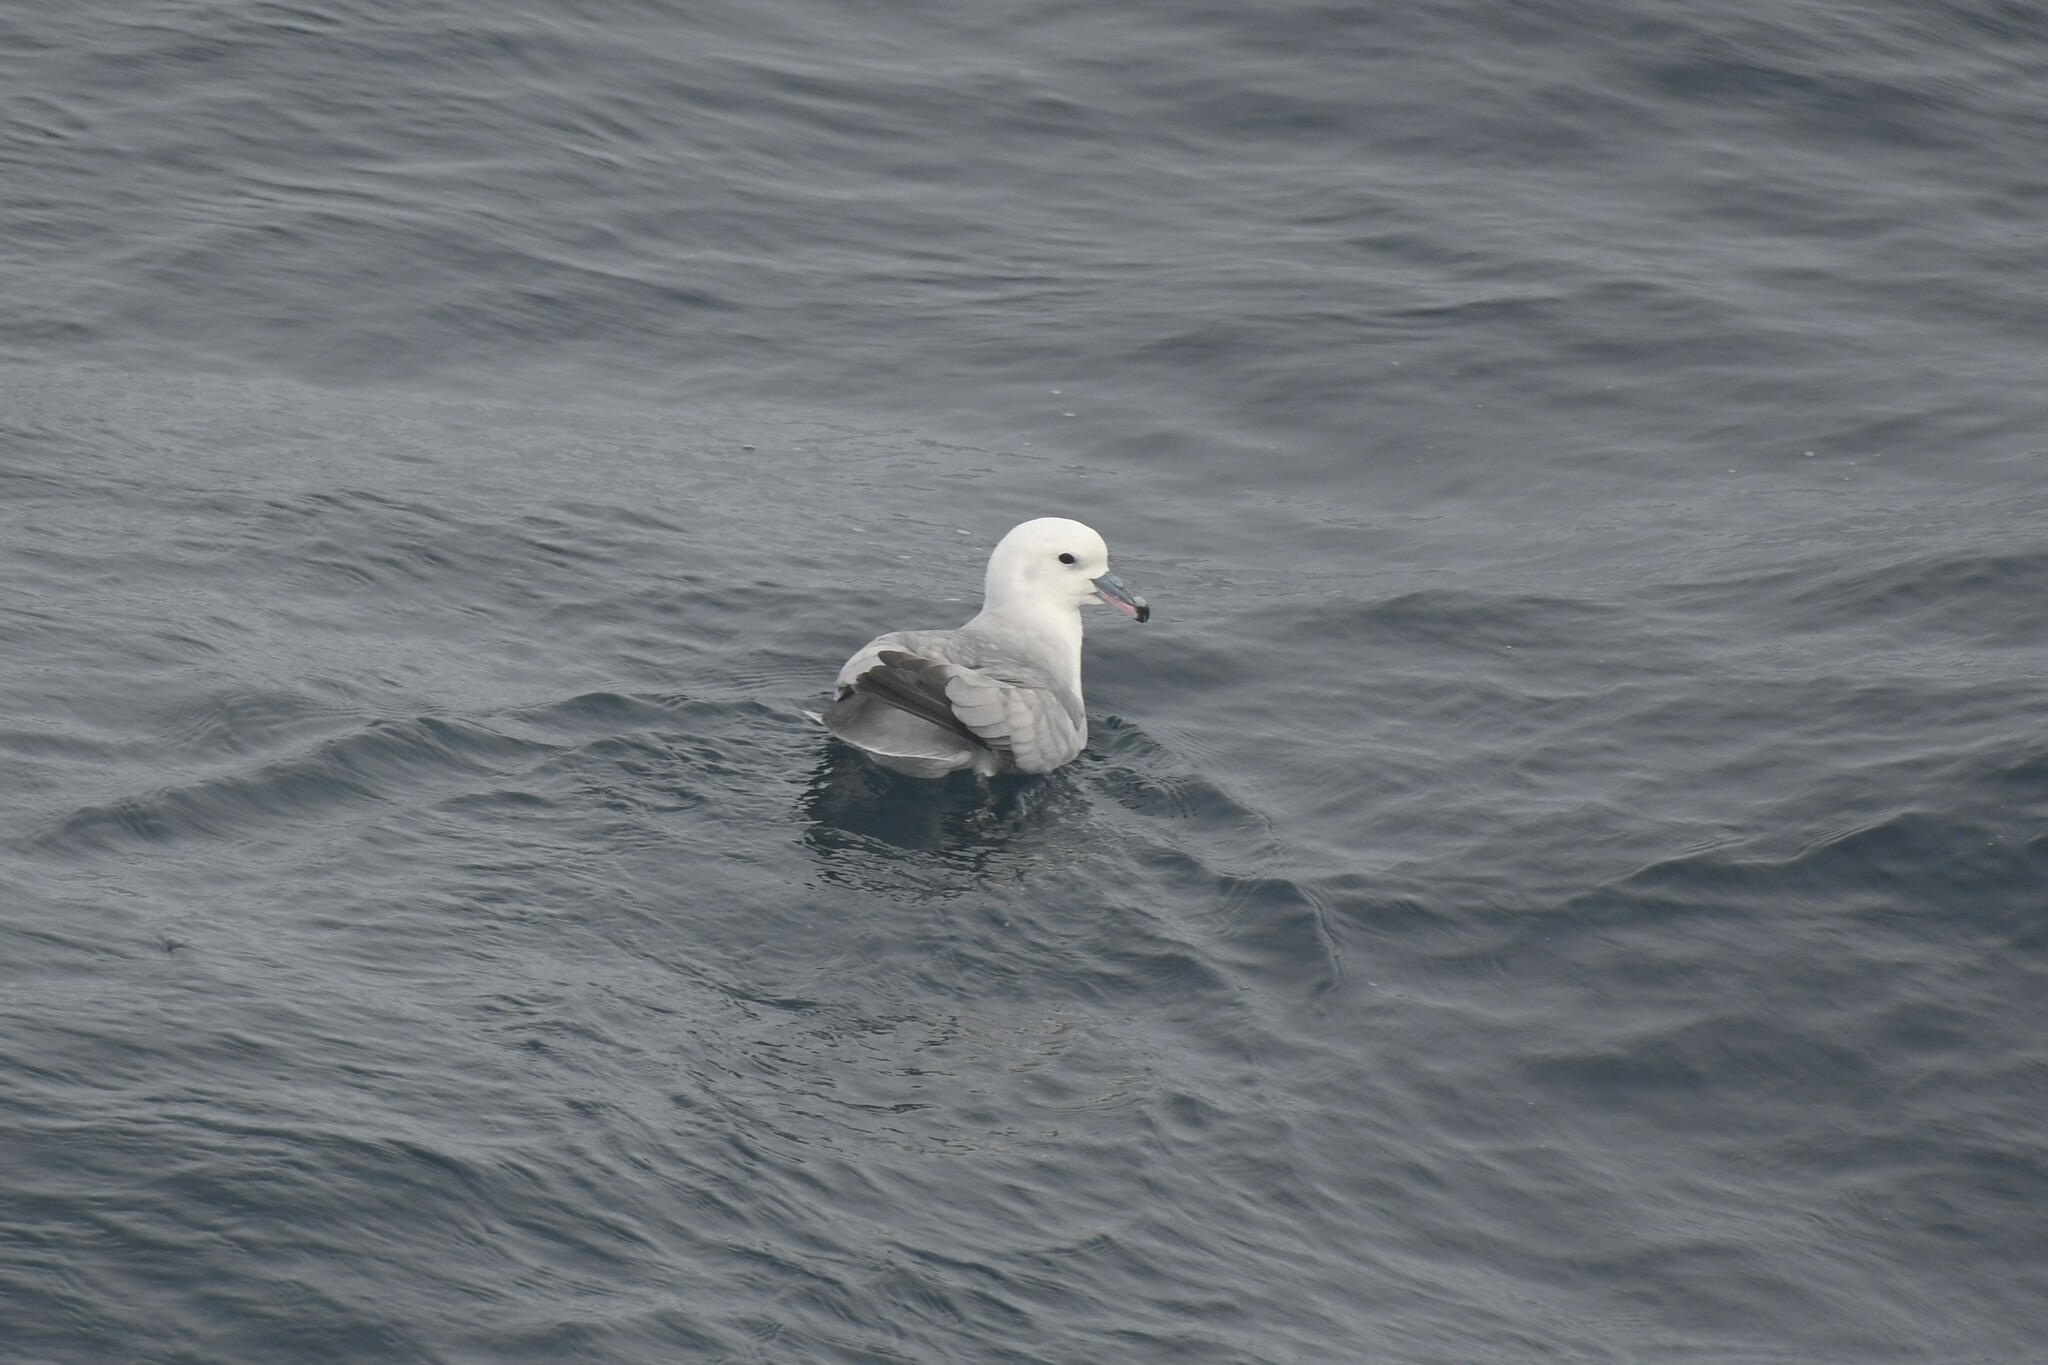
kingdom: Animalia
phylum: Chordata
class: Aves
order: Procellariiformes
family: Procellariidae
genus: Fulmarus
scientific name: Fulmarus glacialoides
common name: Southern fulmar
